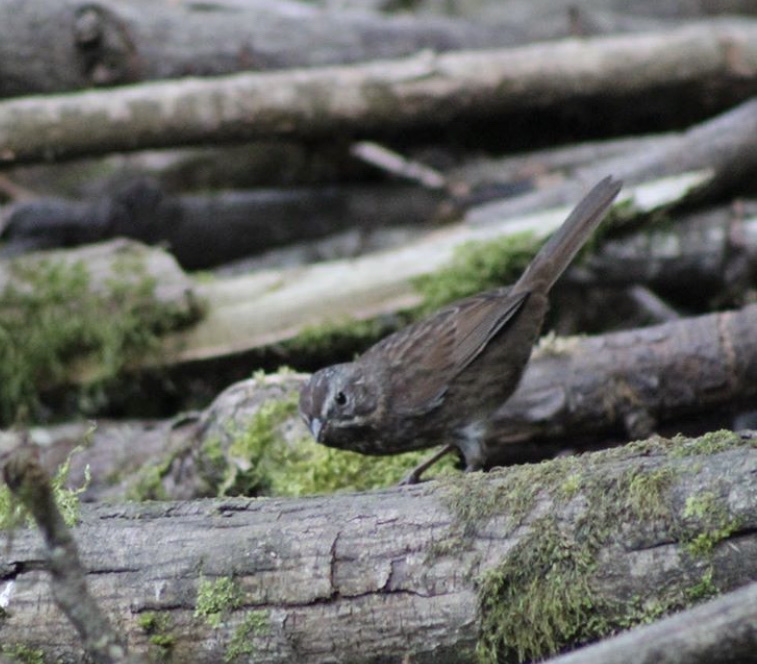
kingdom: Animalia
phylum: Chordata
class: Aves
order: Passeriformes
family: Passerellidae
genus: Melospiza
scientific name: Melospiza melodia
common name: Song sparrow
